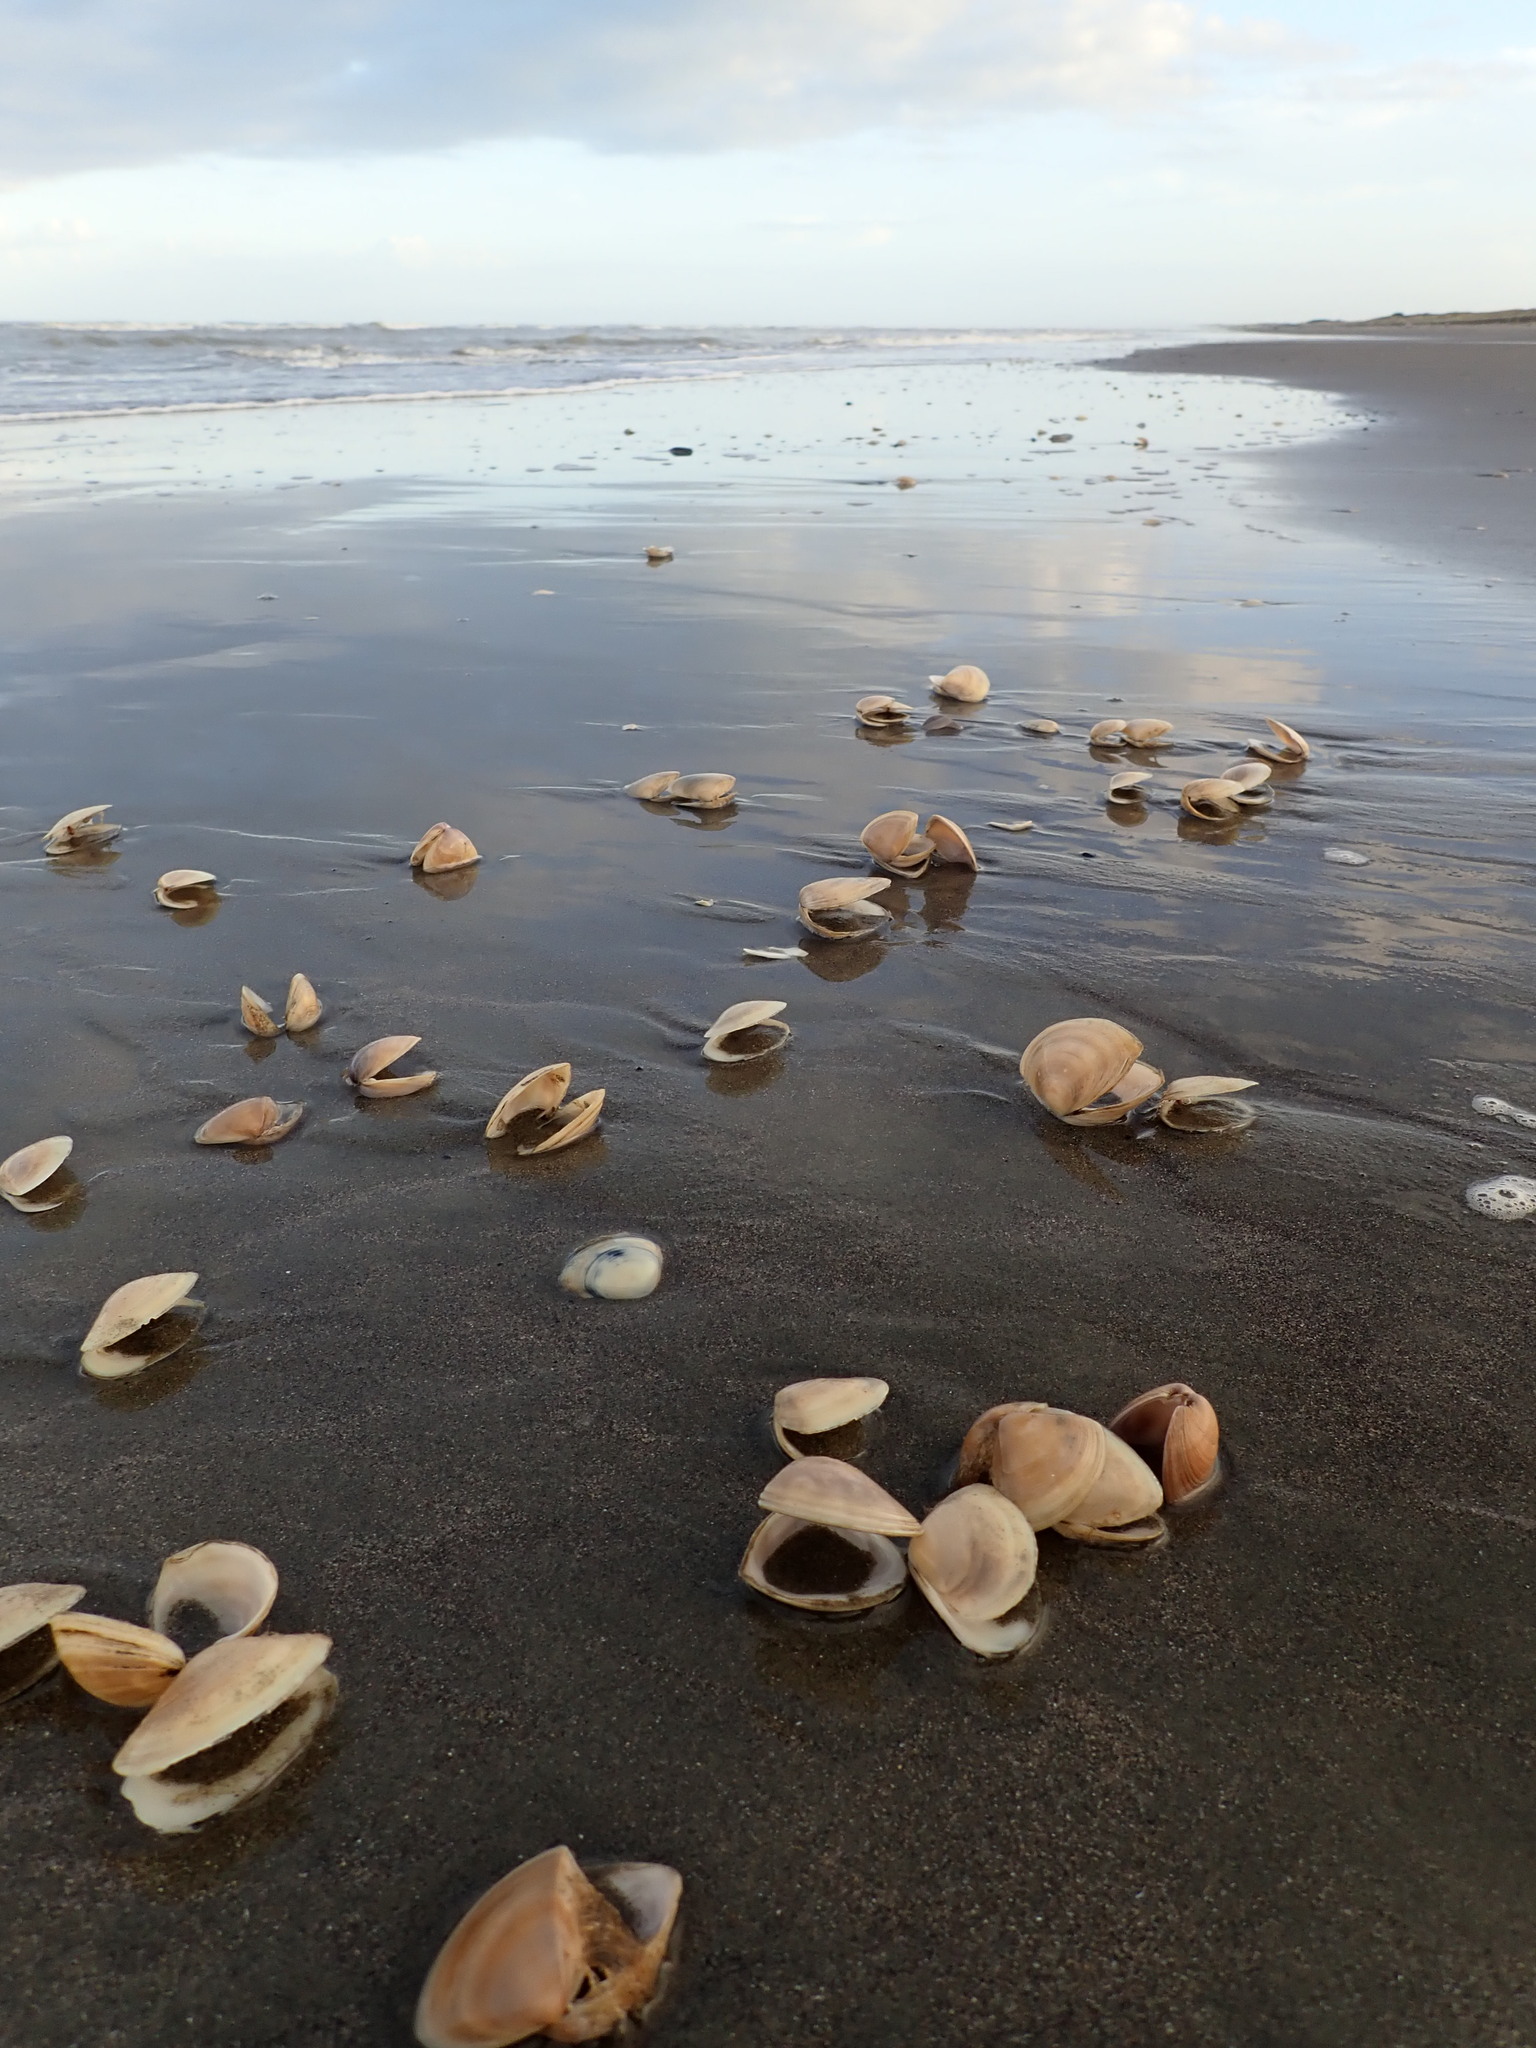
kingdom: Animalia
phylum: Mollusca
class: Bivalvia
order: Venerida
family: Mesodesmatidae
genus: Paphies
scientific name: Paphies donacina
